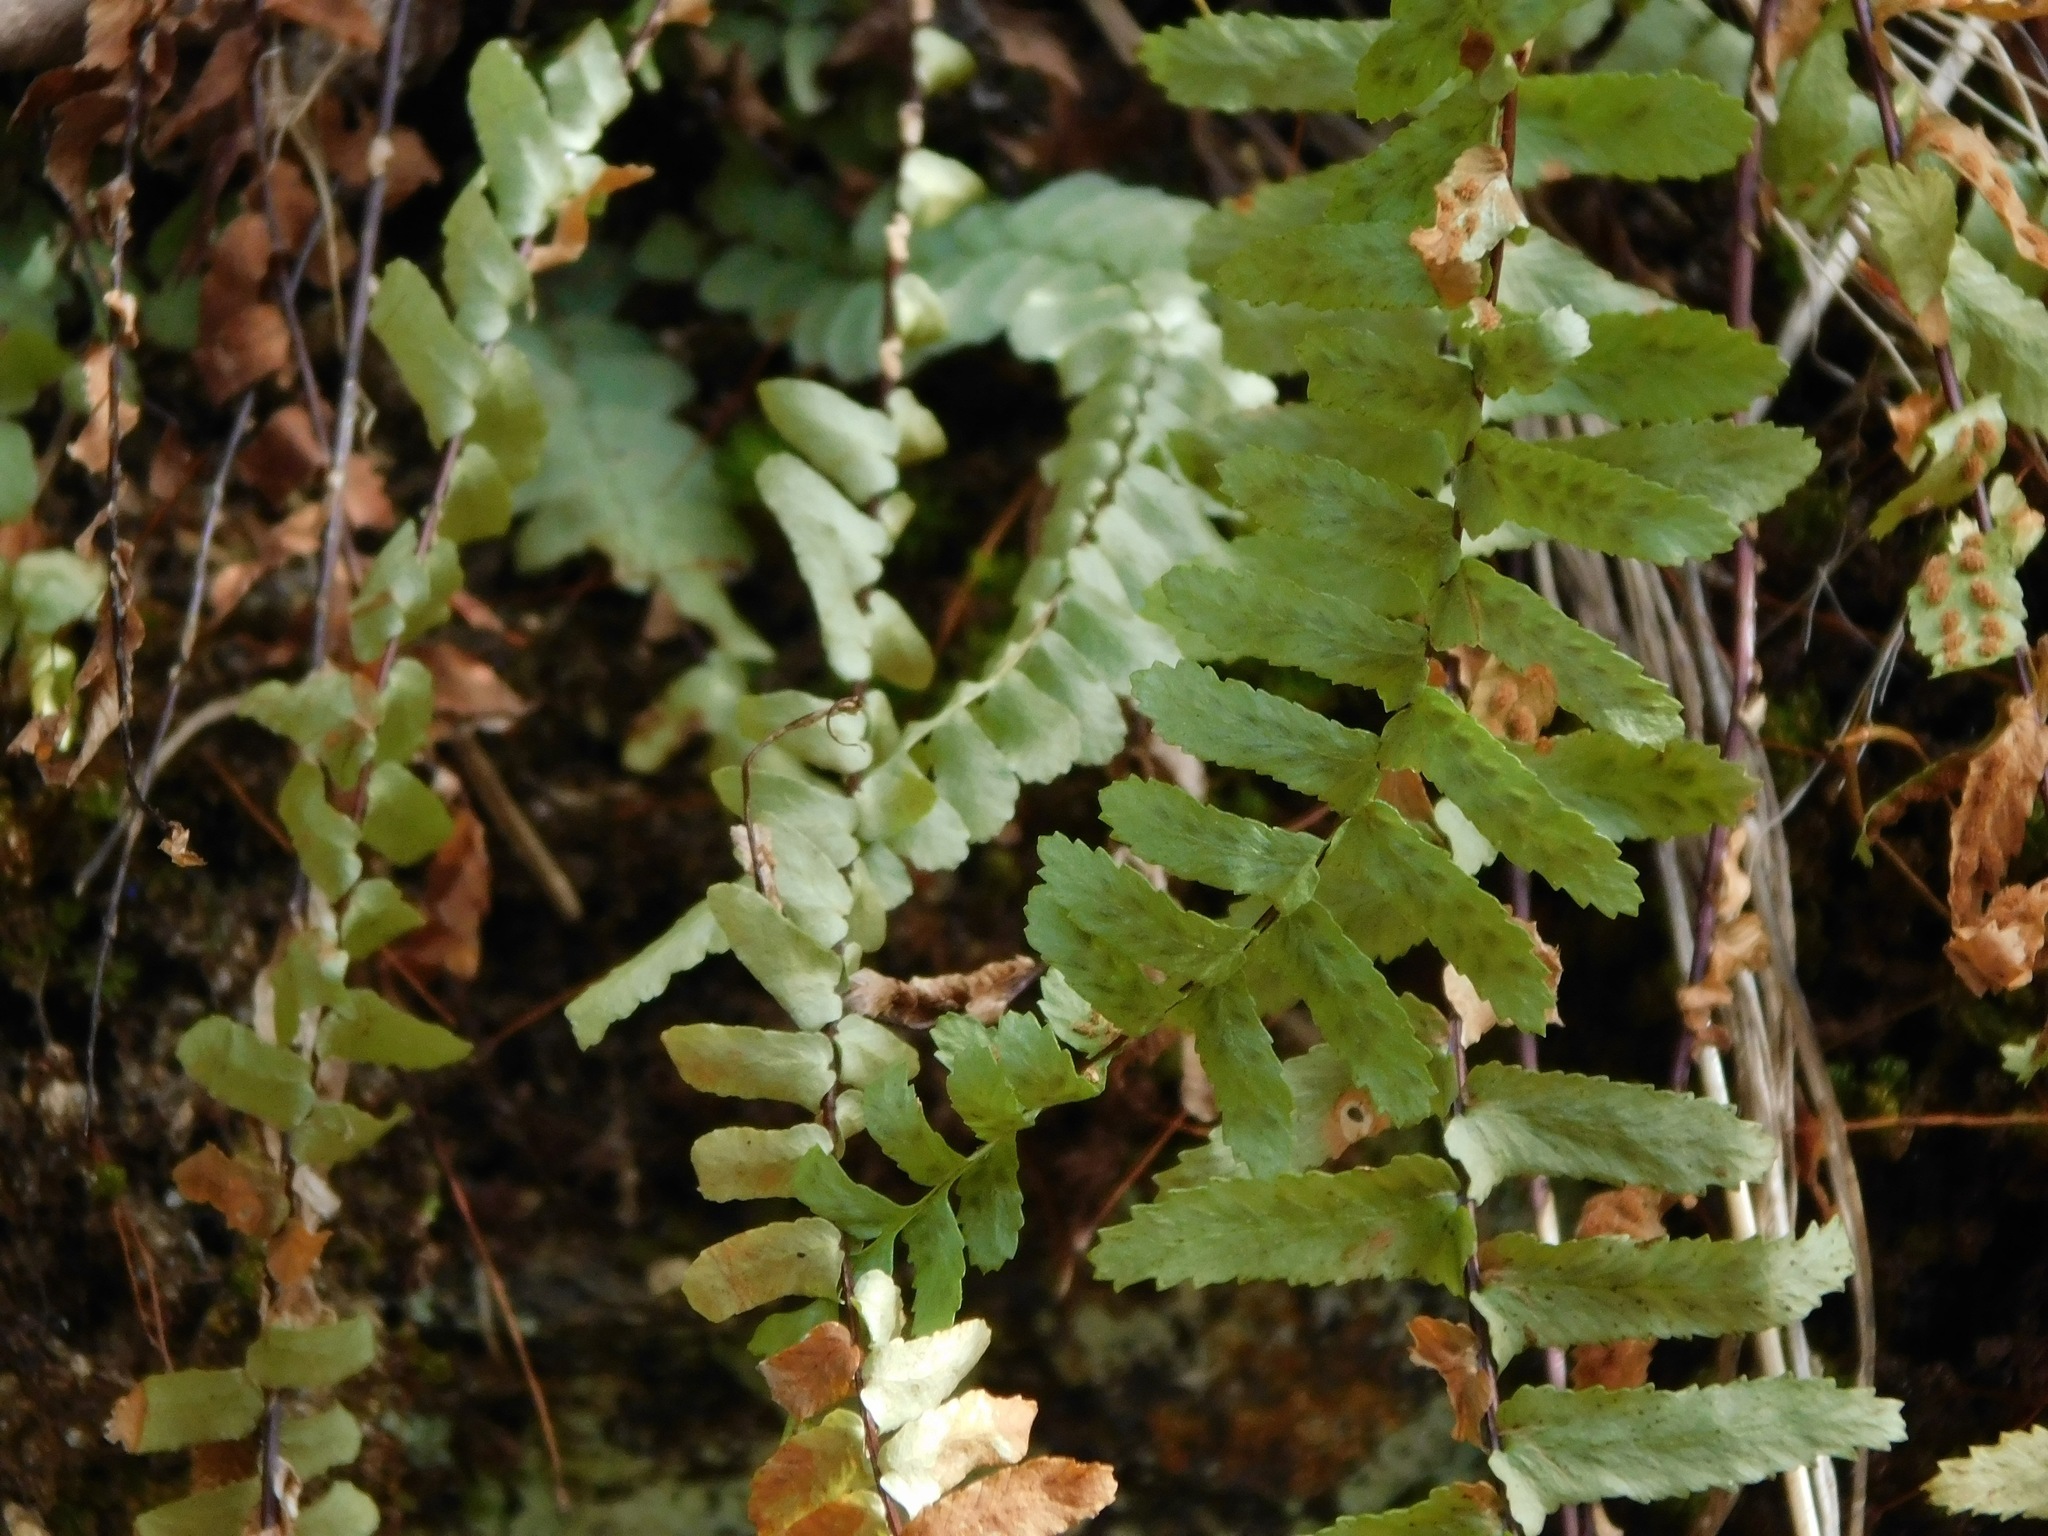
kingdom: Plantae
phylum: Tracheophyta
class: Polypodiopsida
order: Polypodiales
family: Aspleniaceae
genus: Asplenium
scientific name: Asplenium platyneuron
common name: Ebony spleenwort
